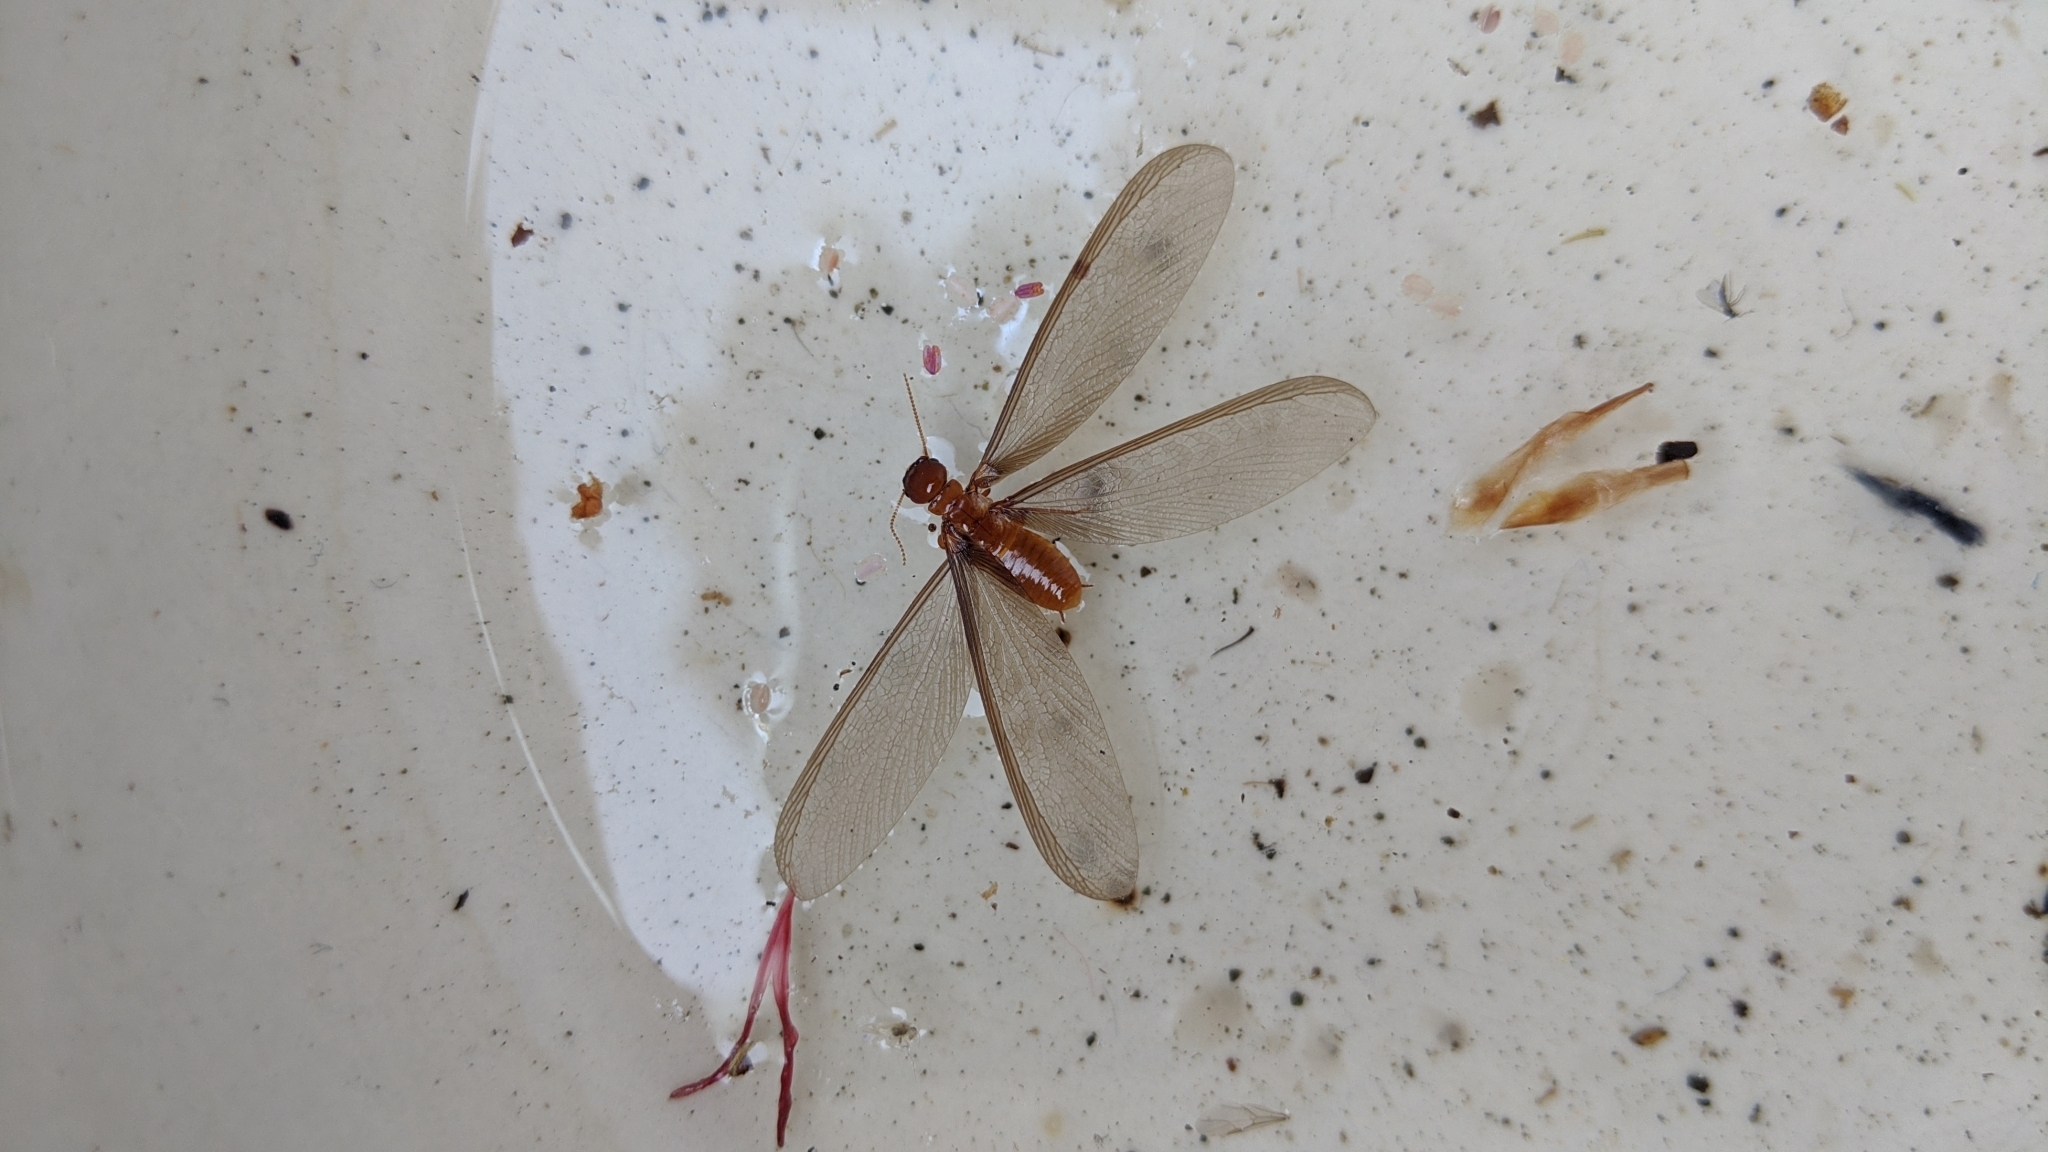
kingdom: Animalia
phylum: Arthropoda
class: Insecta
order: Blattodea
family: Archotermopsidae
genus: Zootermopsis
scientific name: Zootermopsis angusticollis
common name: Rottenwood termite
